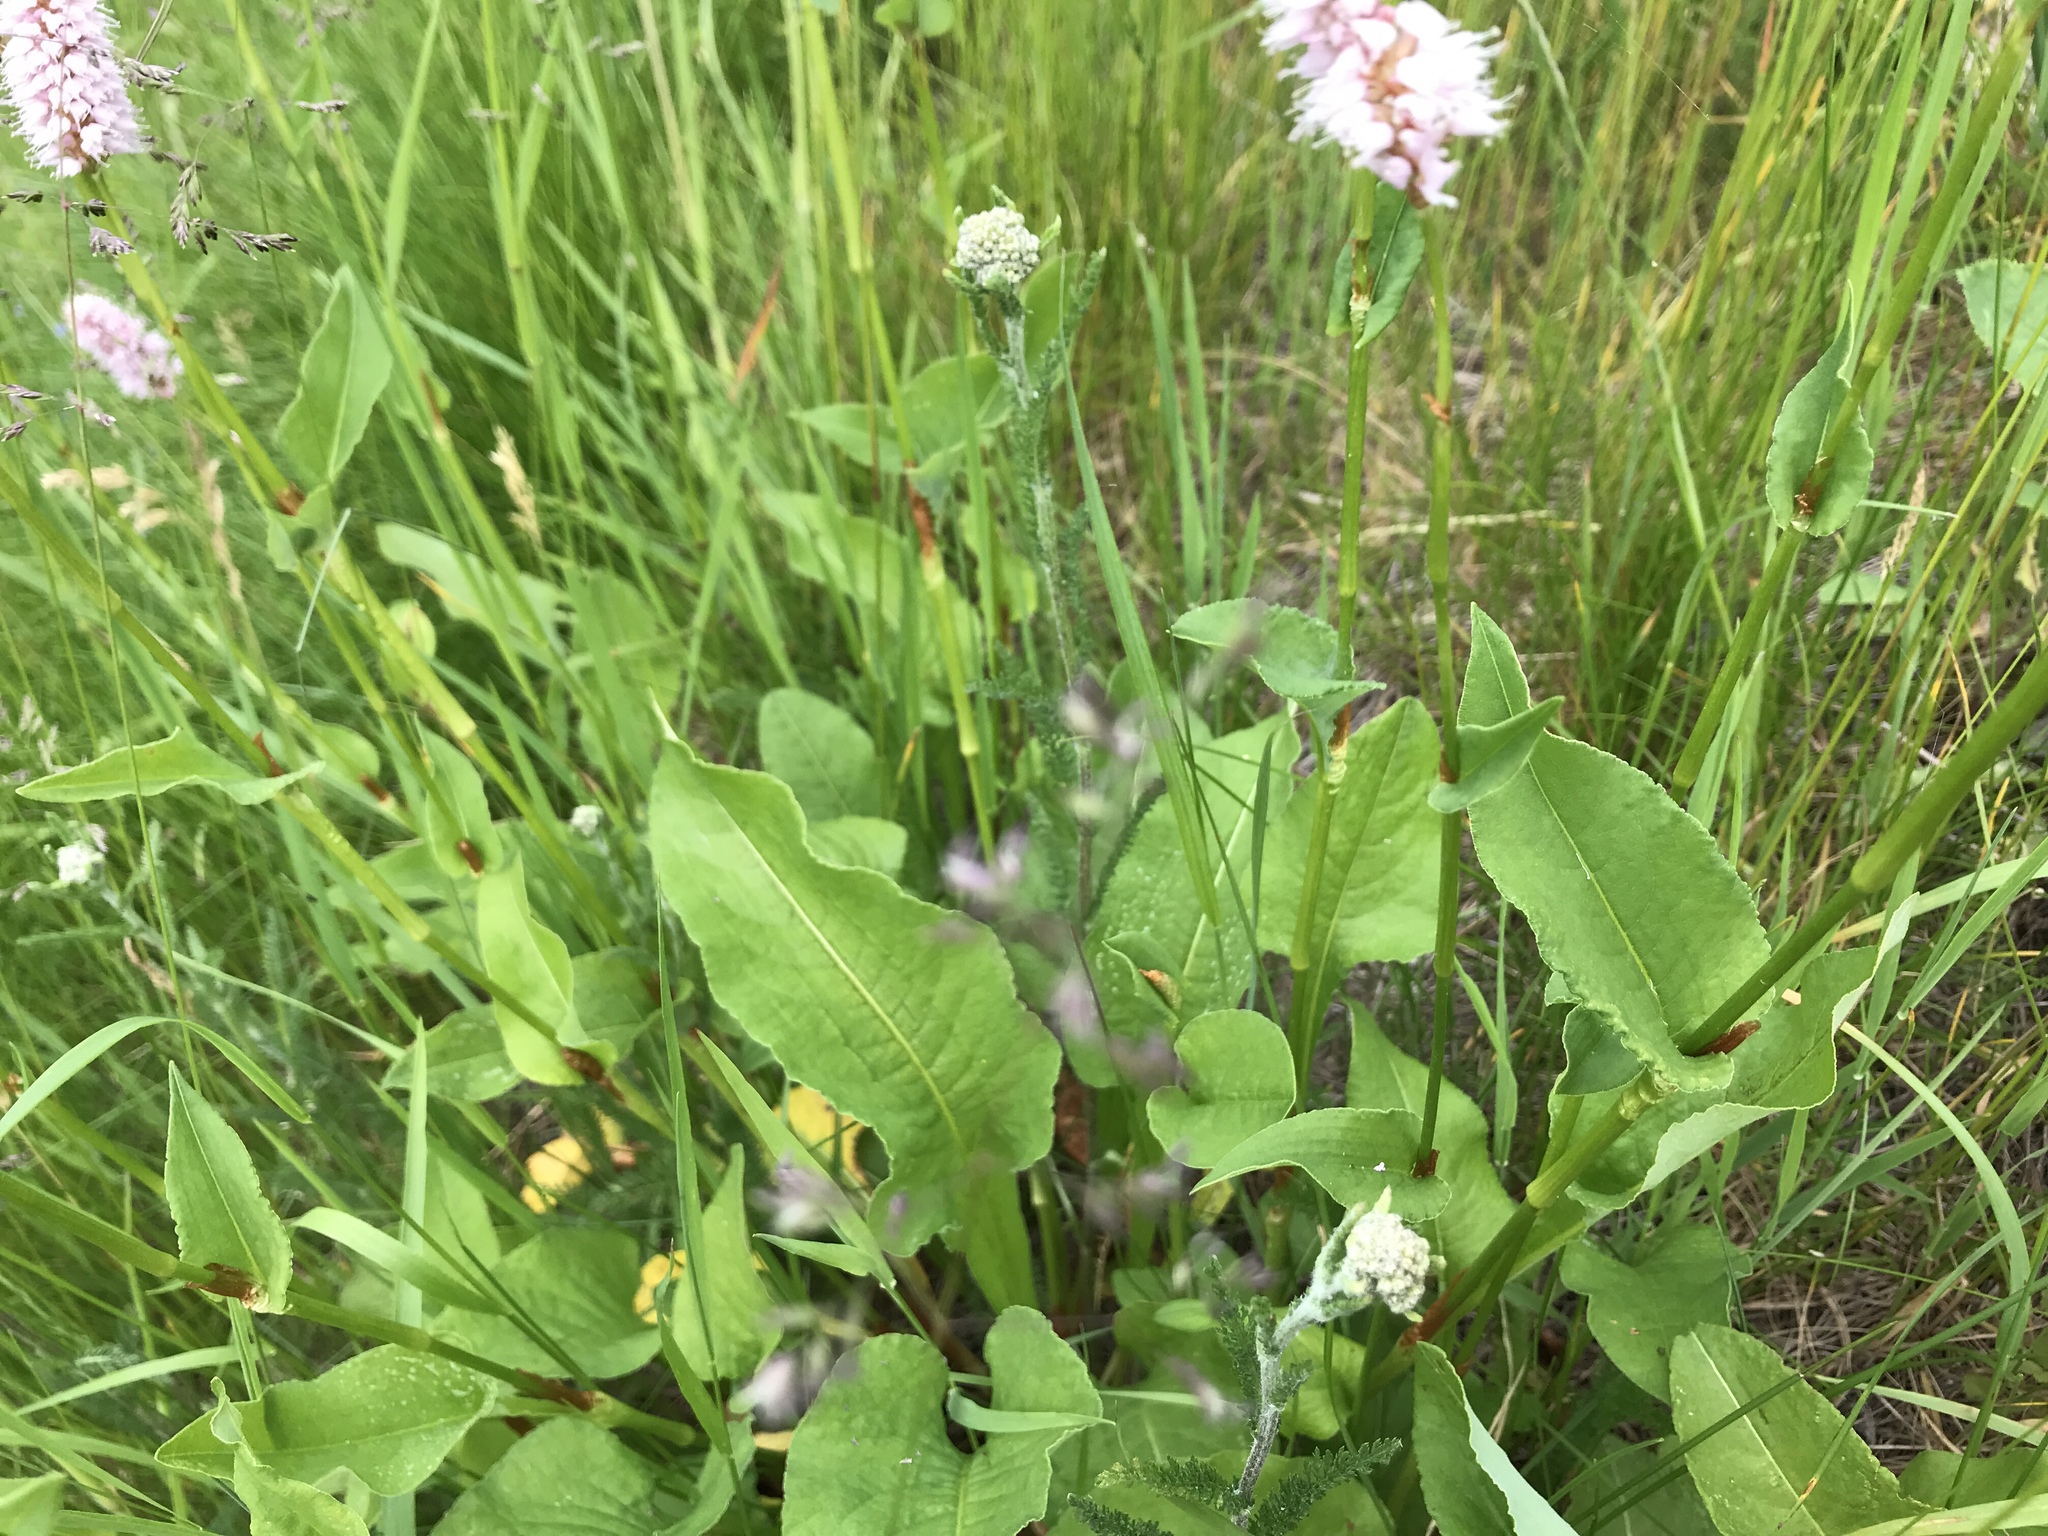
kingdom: Plantae
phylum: Tracheophyta
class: Magnoliopsida
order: Caryophyllales
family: Polygonaceae
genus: Bistorta
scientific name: Bistorta officinalis
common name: Common bistort
